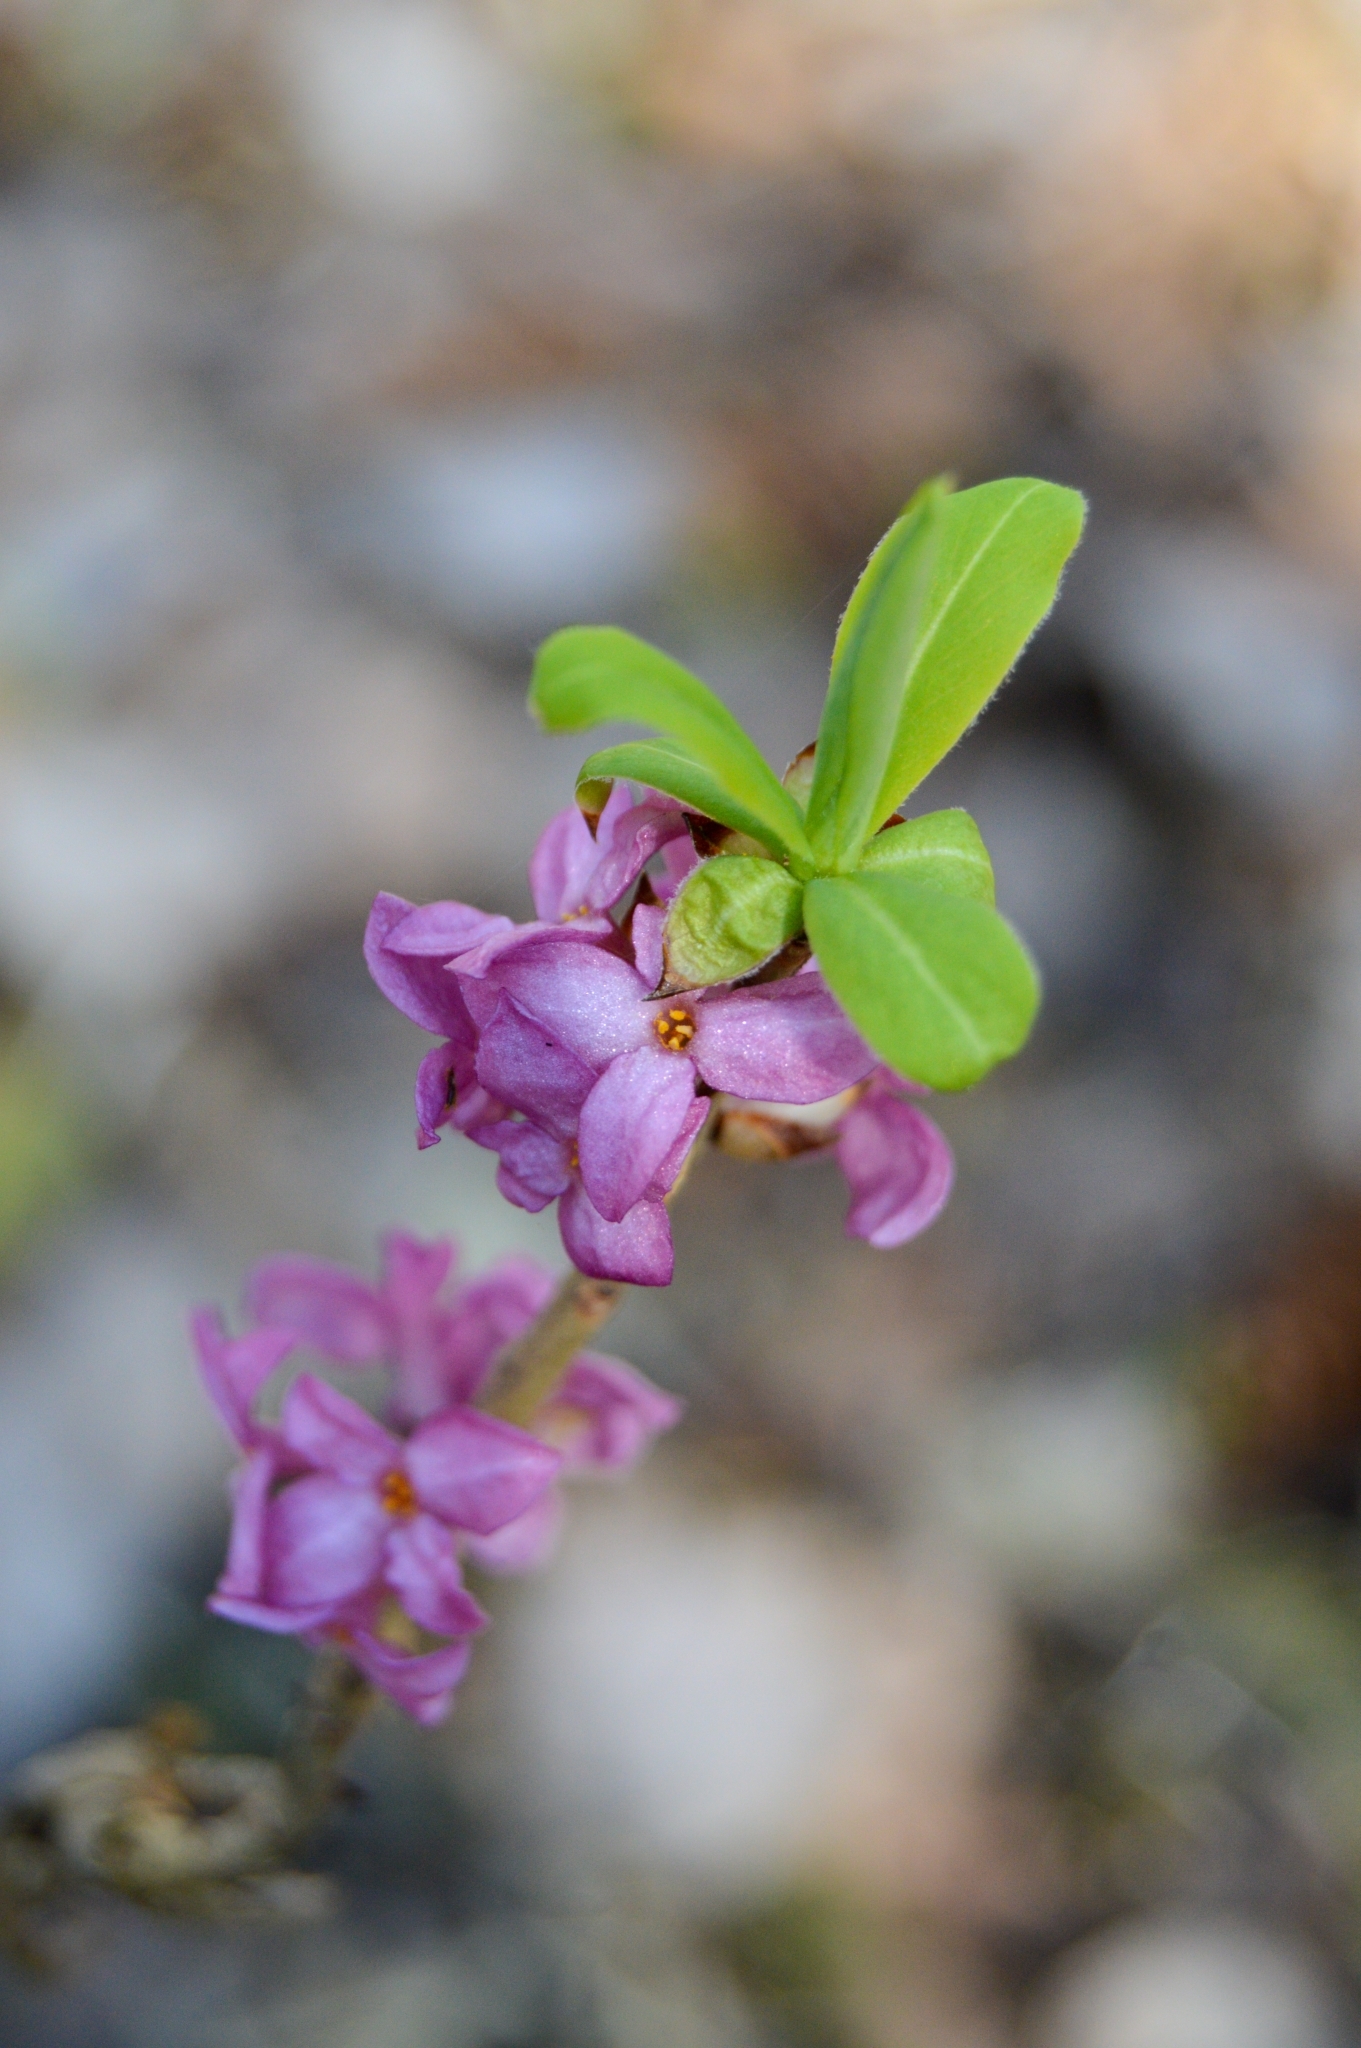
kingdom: Plantae
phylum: Tracheophyta
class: Magnoliopsida
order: Malvales
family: Thymelaeaceae
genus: Daphne
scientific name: Daphne mezereum
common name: Mezereon
